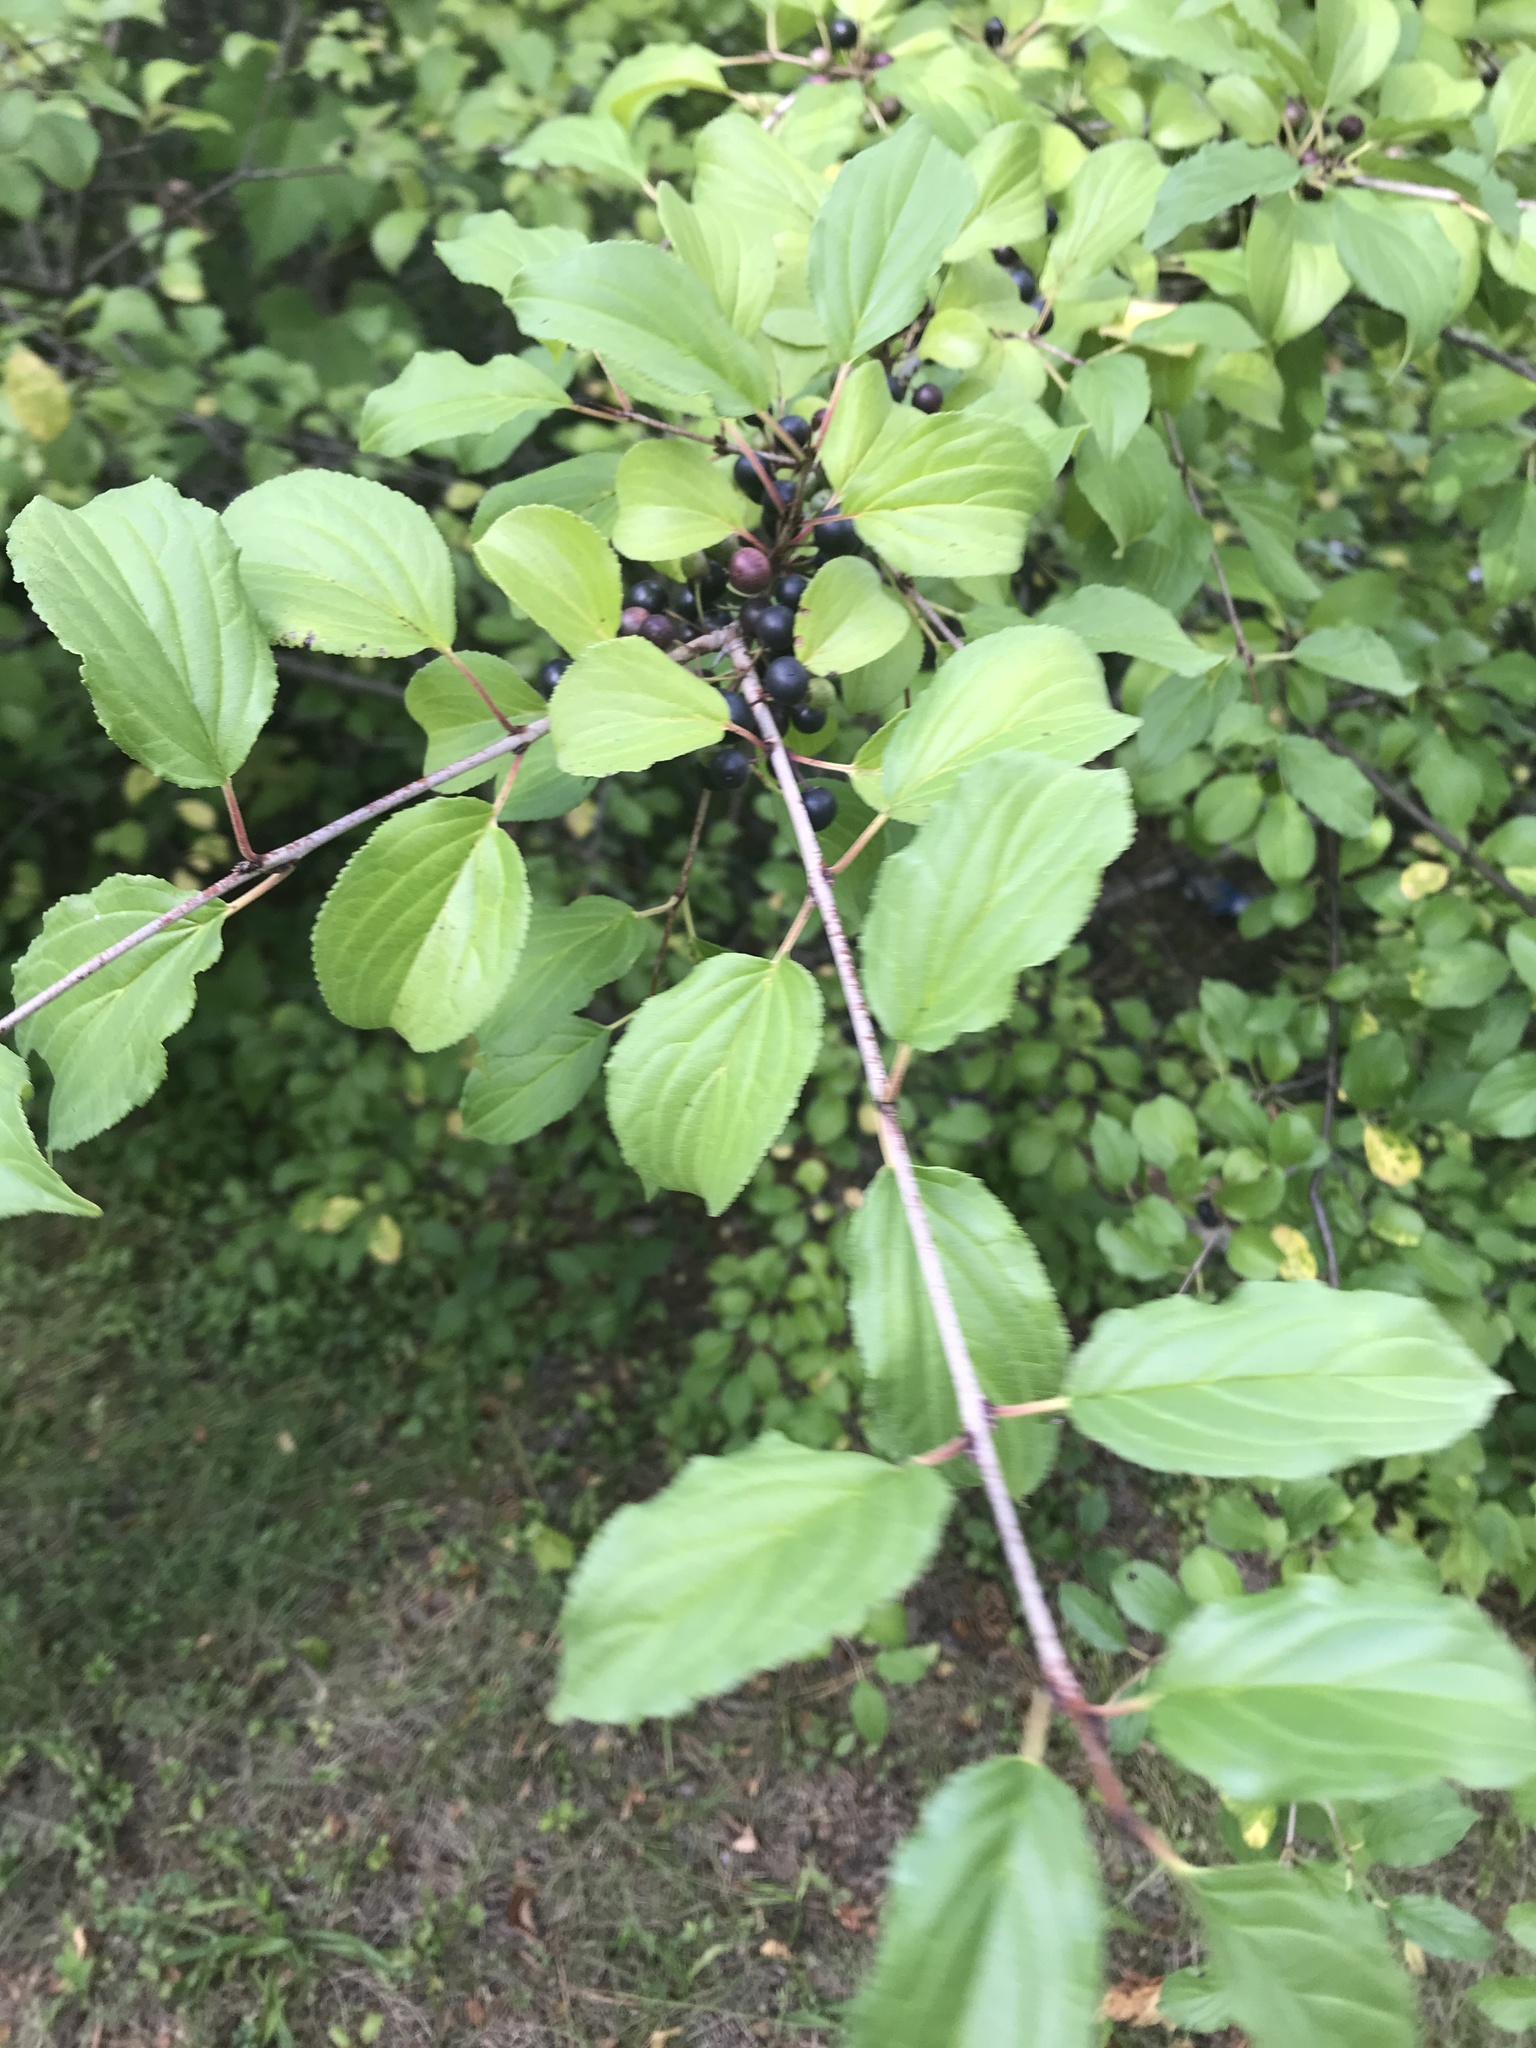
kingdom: Plantae
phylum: Tracheophyta
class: Magnoliopsida
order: Rosales
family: Rhamnaceae
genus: Rhamnus
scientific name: Rhamnus cathartica
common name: Common buckthorn
